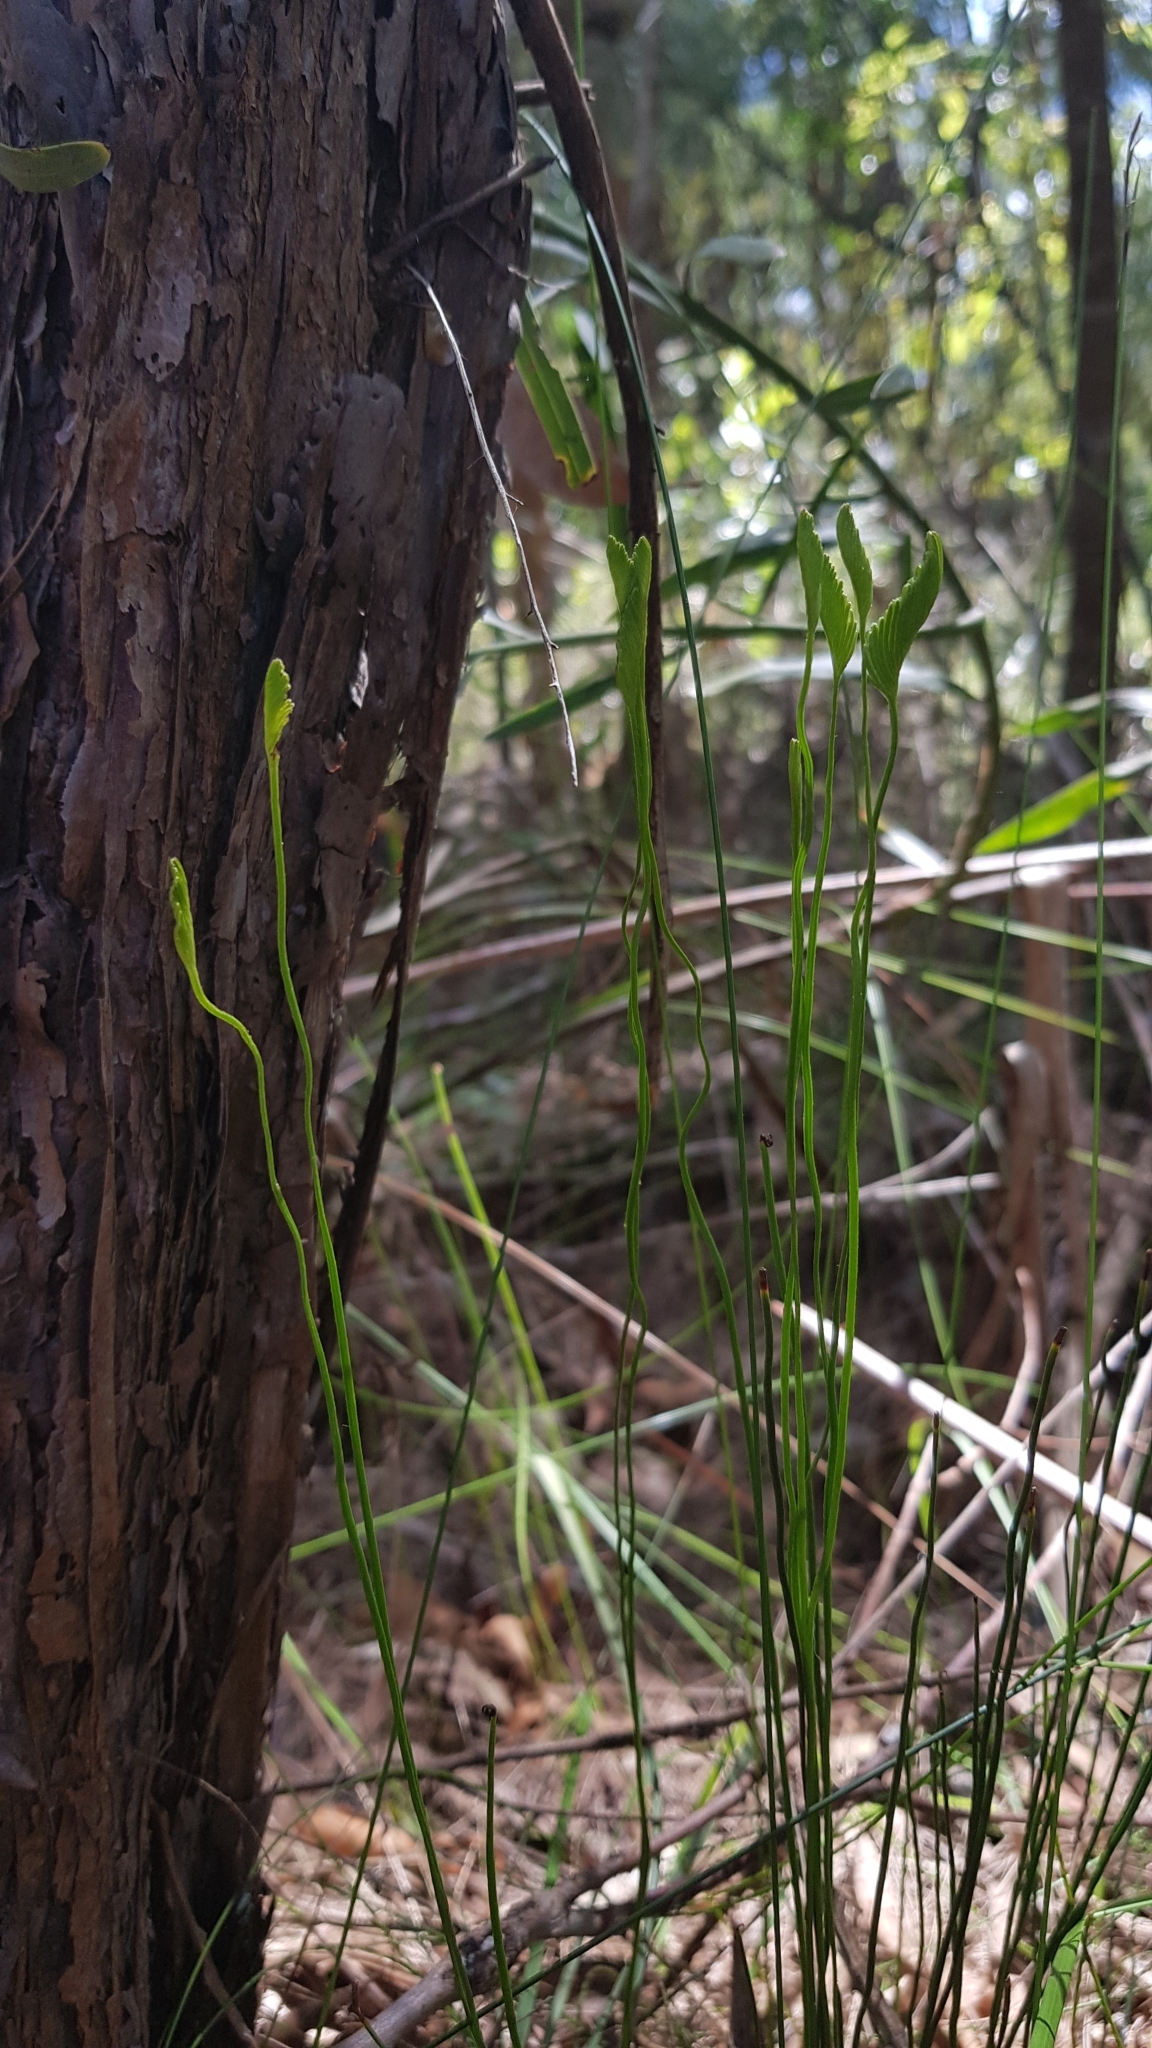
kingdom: Plantae
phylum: Tracheophyta
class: Polypodiopsida
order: Schizaeales
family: Schizaeaceae
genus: Schizaea
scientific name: Schizaea bifida
